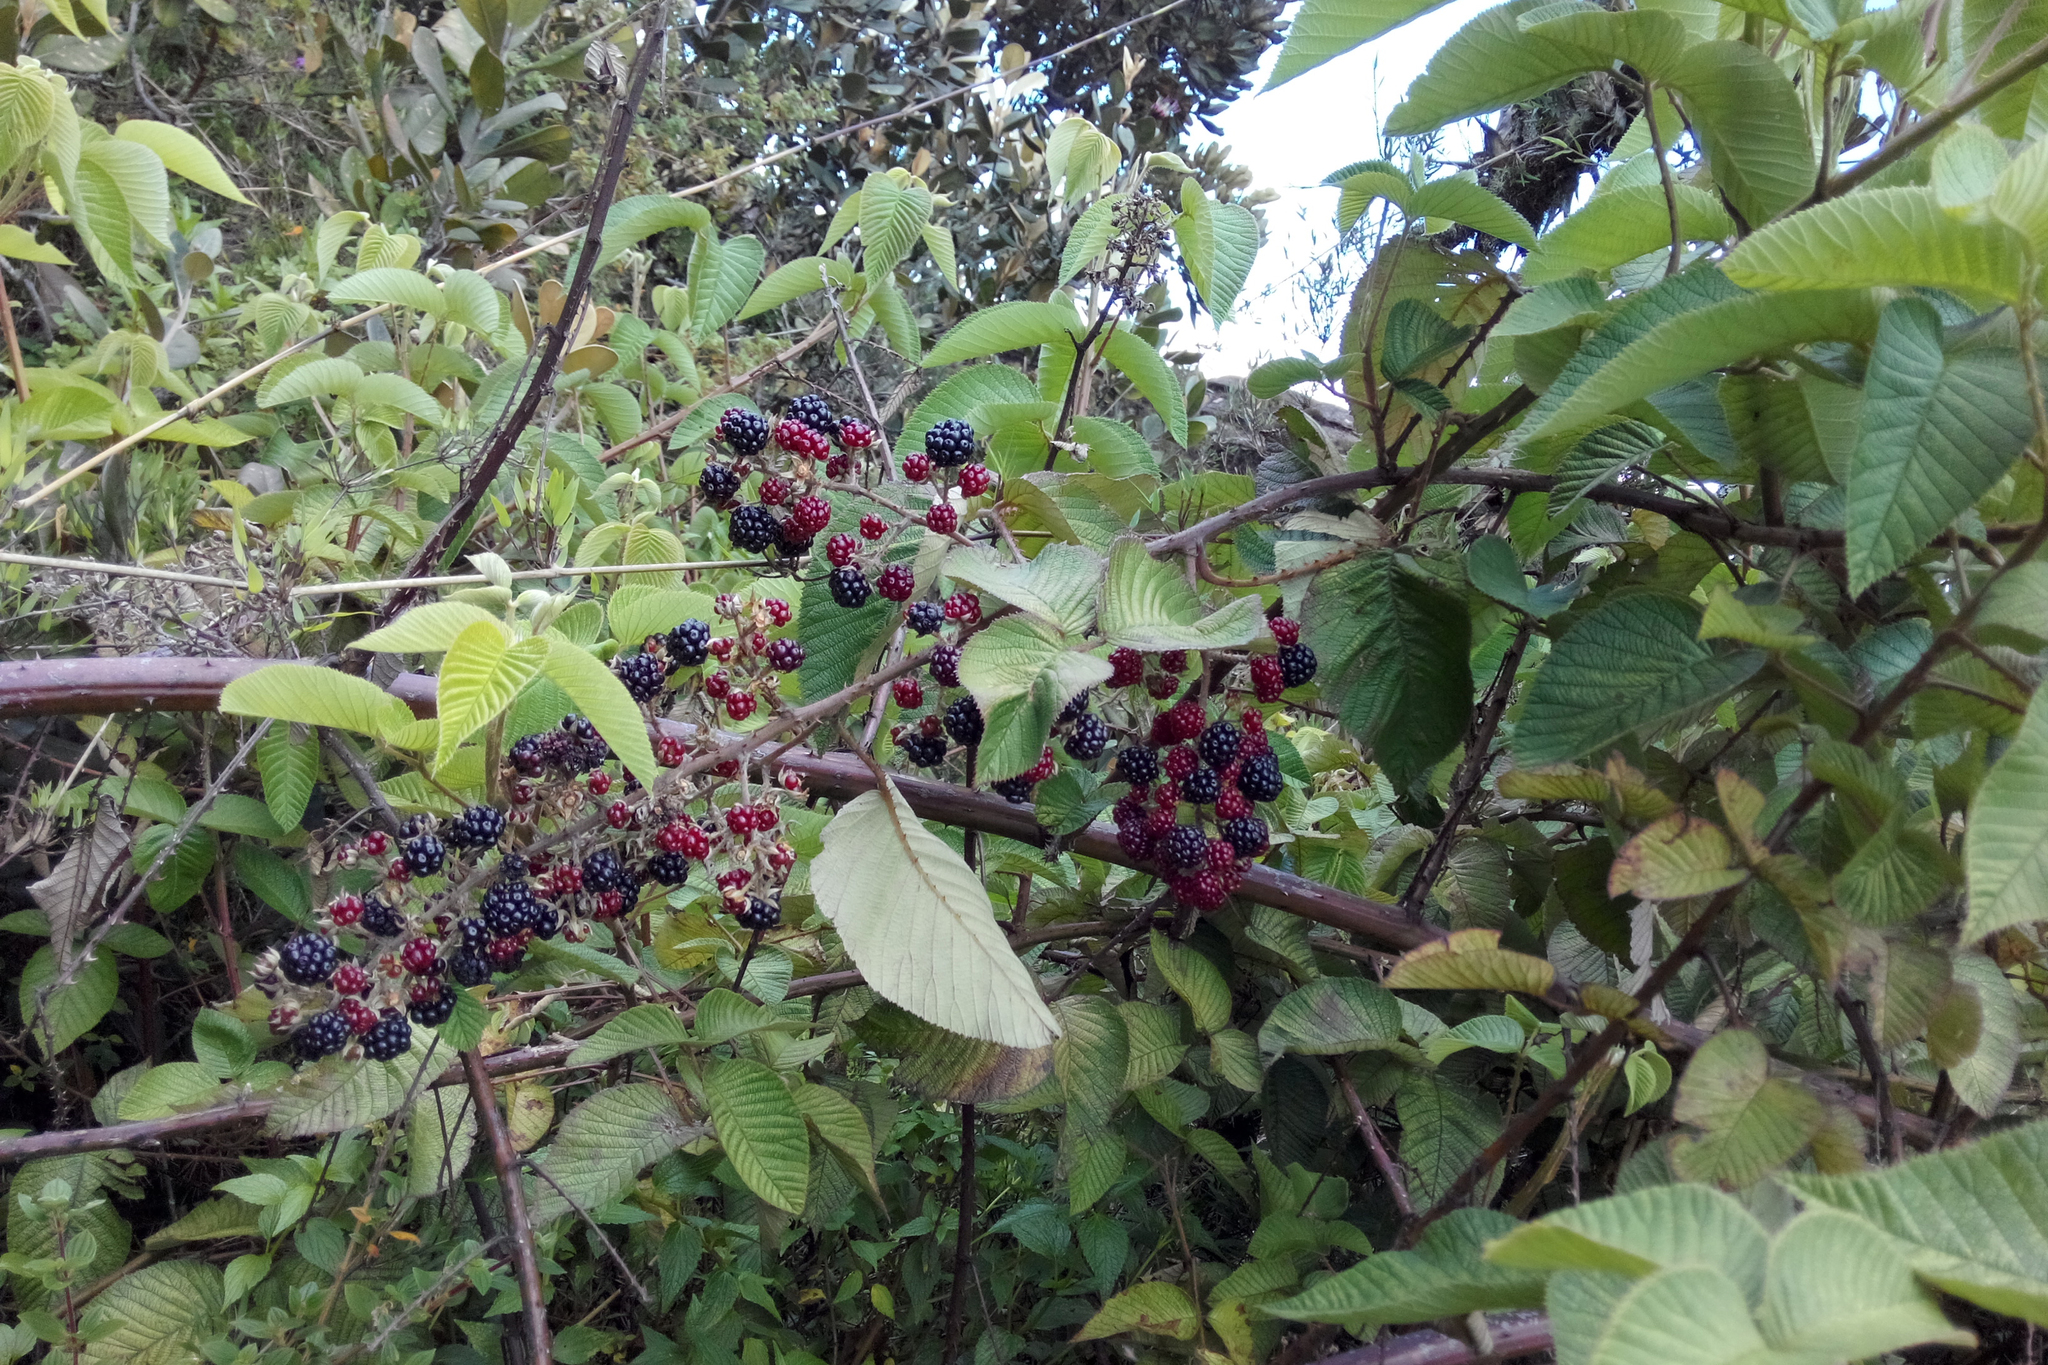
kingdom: Plantae
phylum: Tracheophyta
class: Magnoliopsida
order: Rosales
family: Rosaceae
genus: Rubus
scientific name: Rubus guyanensis
